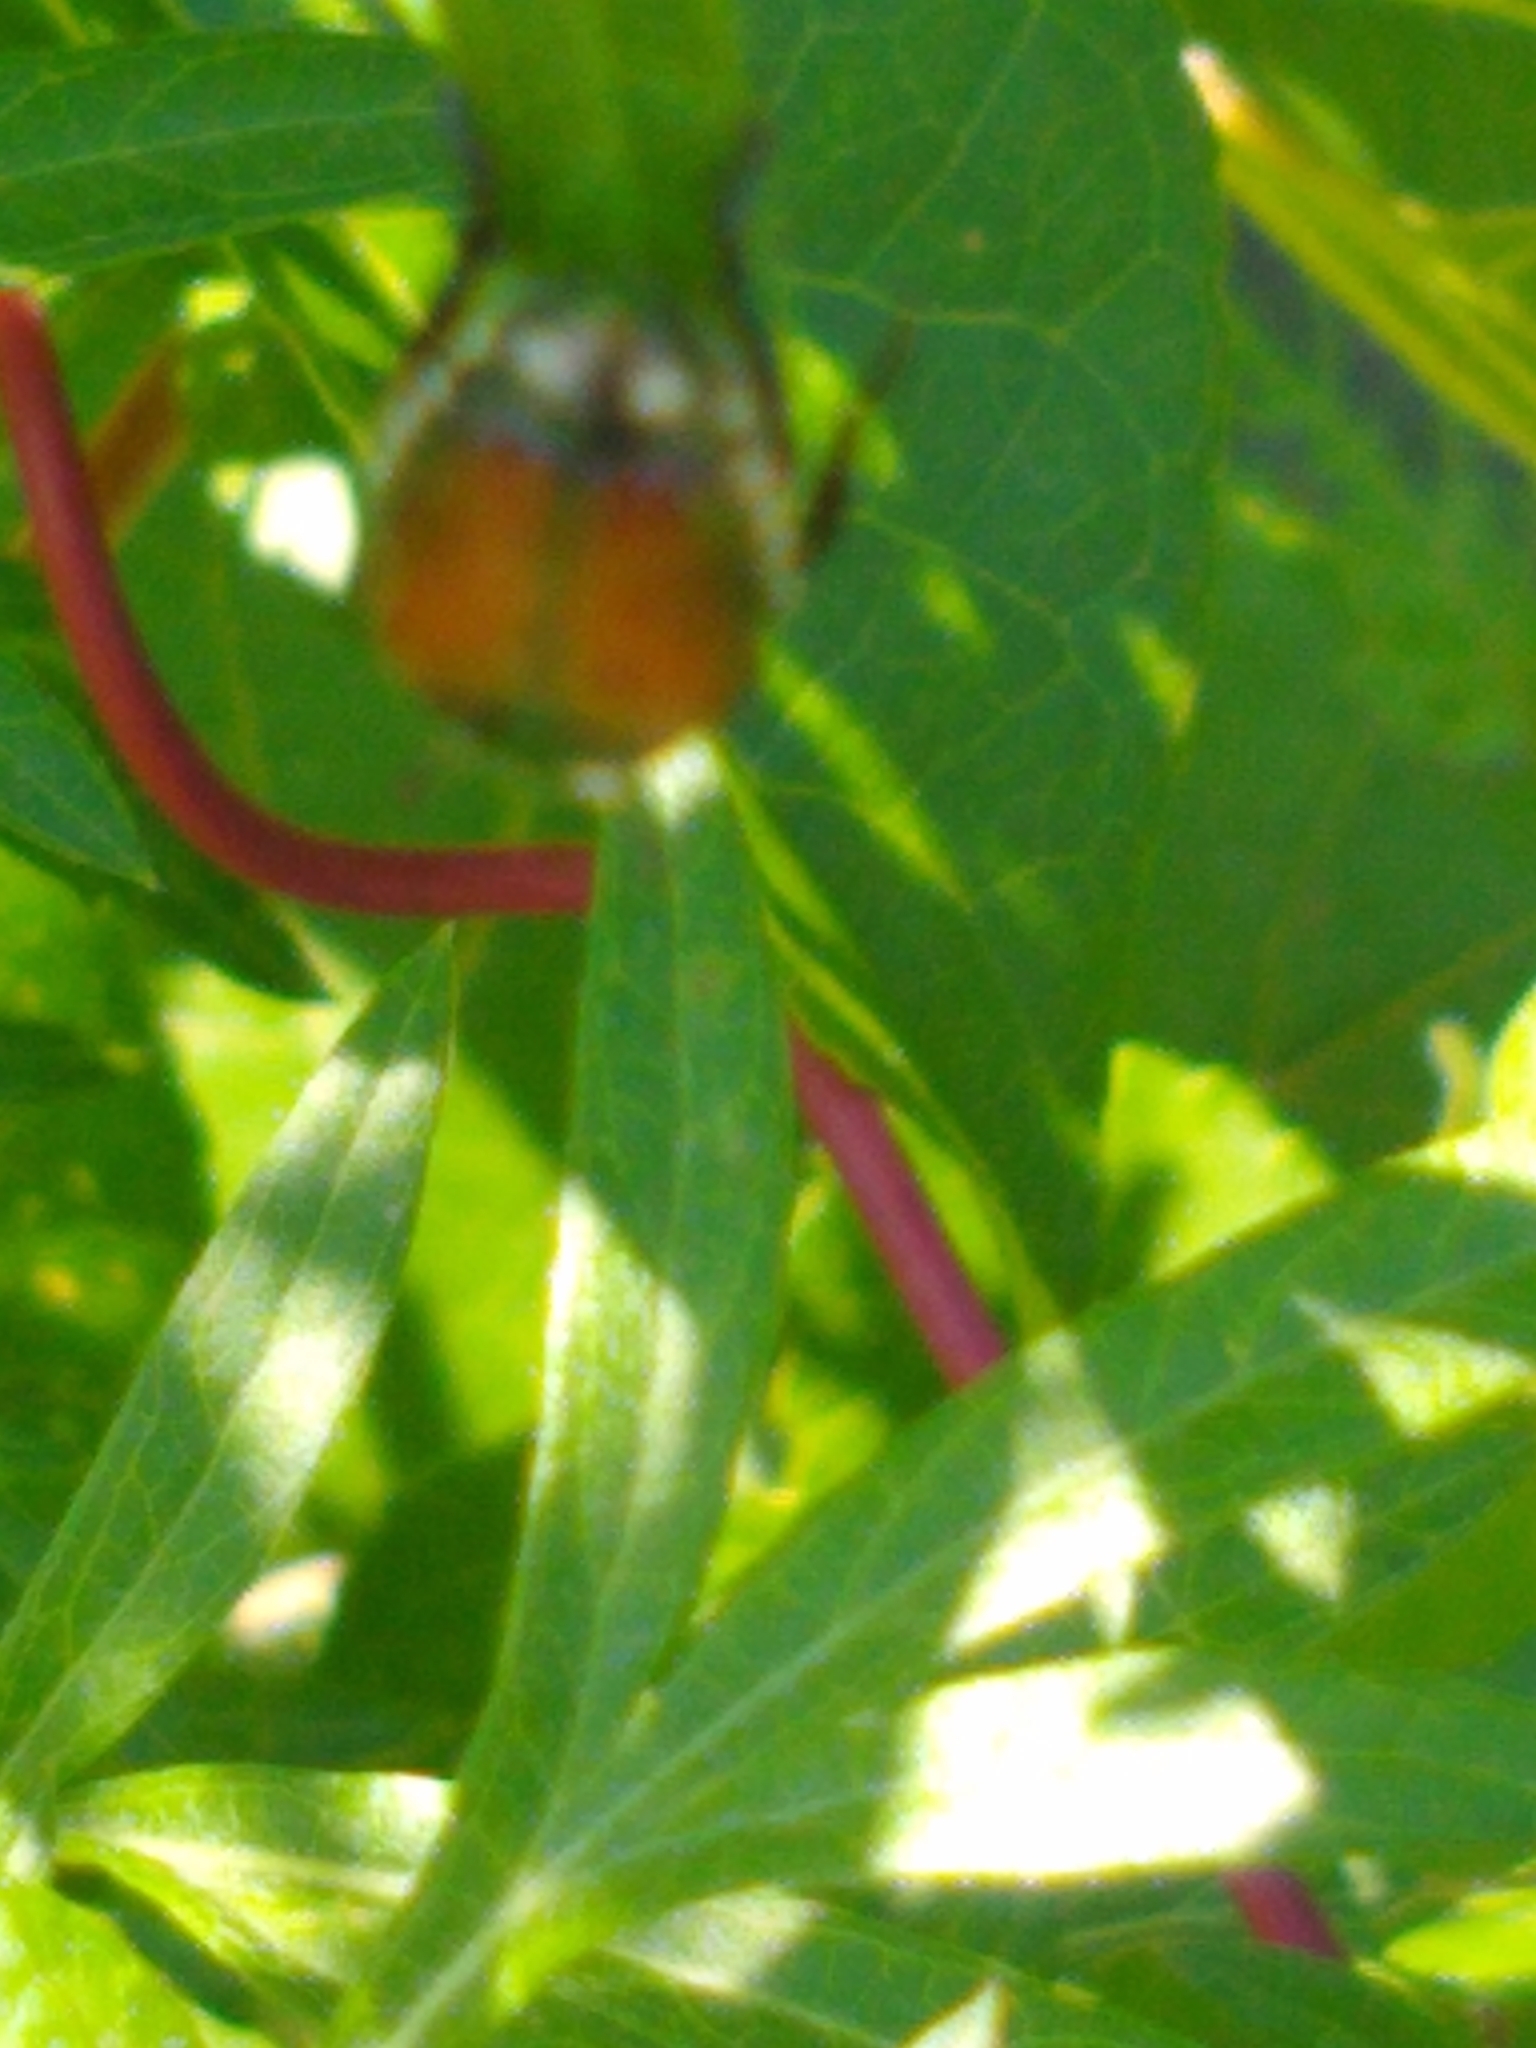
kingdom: Animalia
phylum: Arthropoda
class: Insecta
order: Coleoptera
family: Scarabaeidae
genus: Popillia
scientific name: Popillia japonica
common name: Japanese beetle
